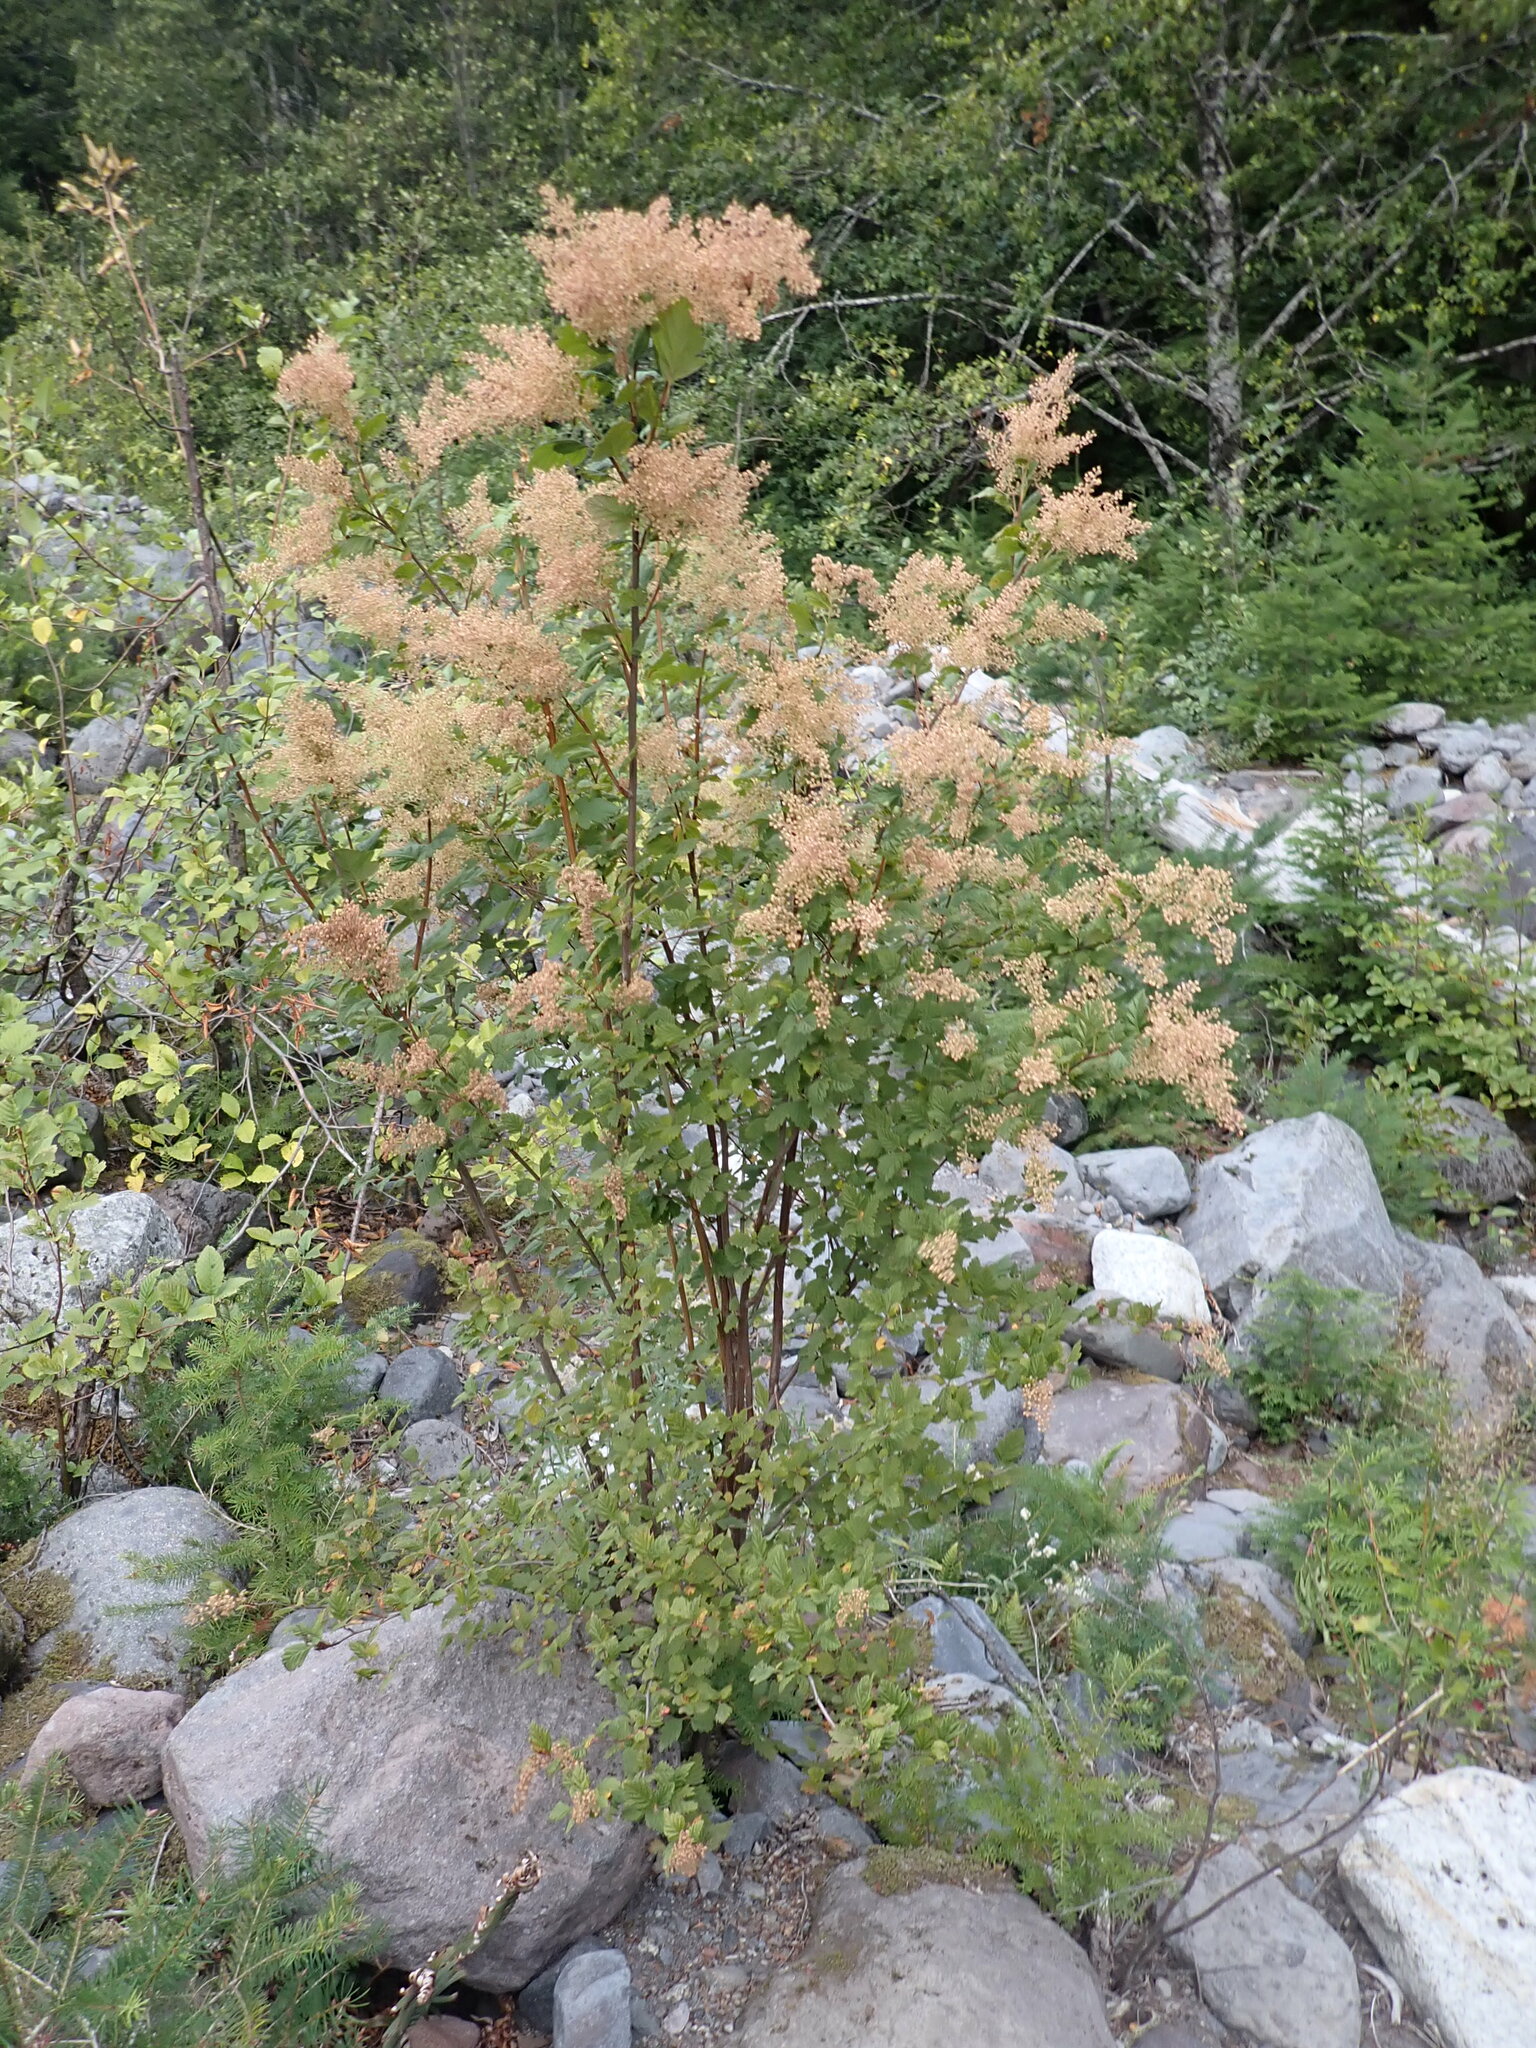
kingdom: Plantae
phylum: Tracheophyta
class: Magnoliopsida
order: Rosales
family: Rosaceae
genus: Holodiscus
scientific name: Holodiscus discolor
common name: Oceanspray
